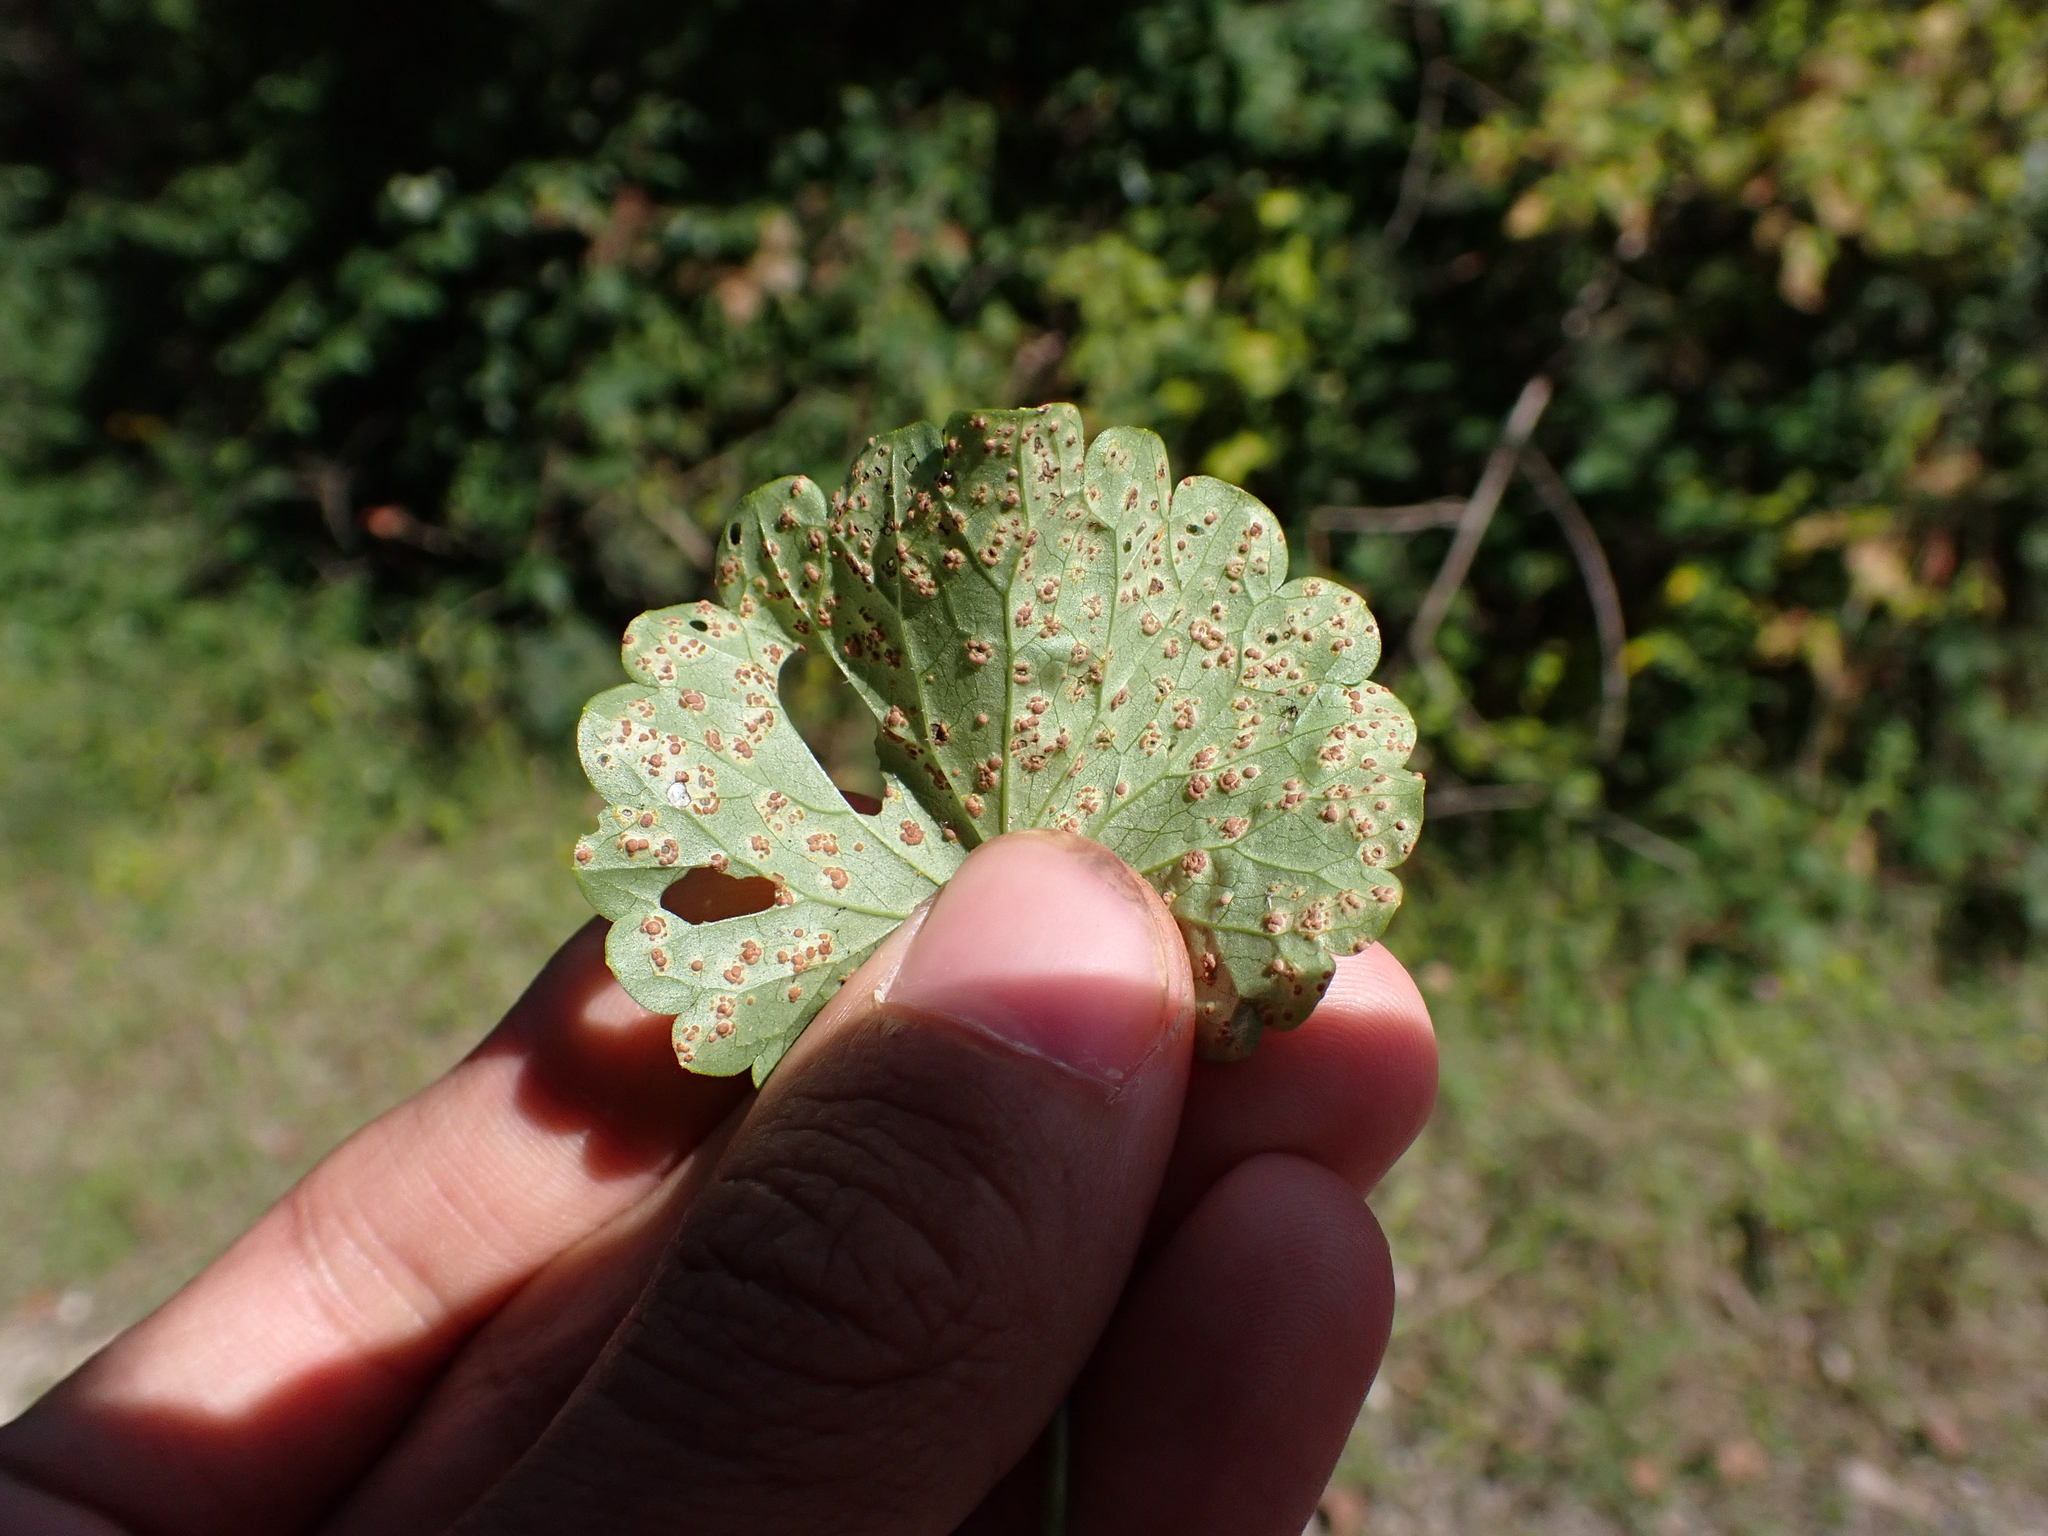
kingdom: Fungi
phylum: Basidiomycota
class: Pucciniomycetes
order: Pucciniales
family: Pucciniaceae
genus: Puccinia
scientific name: Puccinia glechomatis
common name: Ground ivy rust
